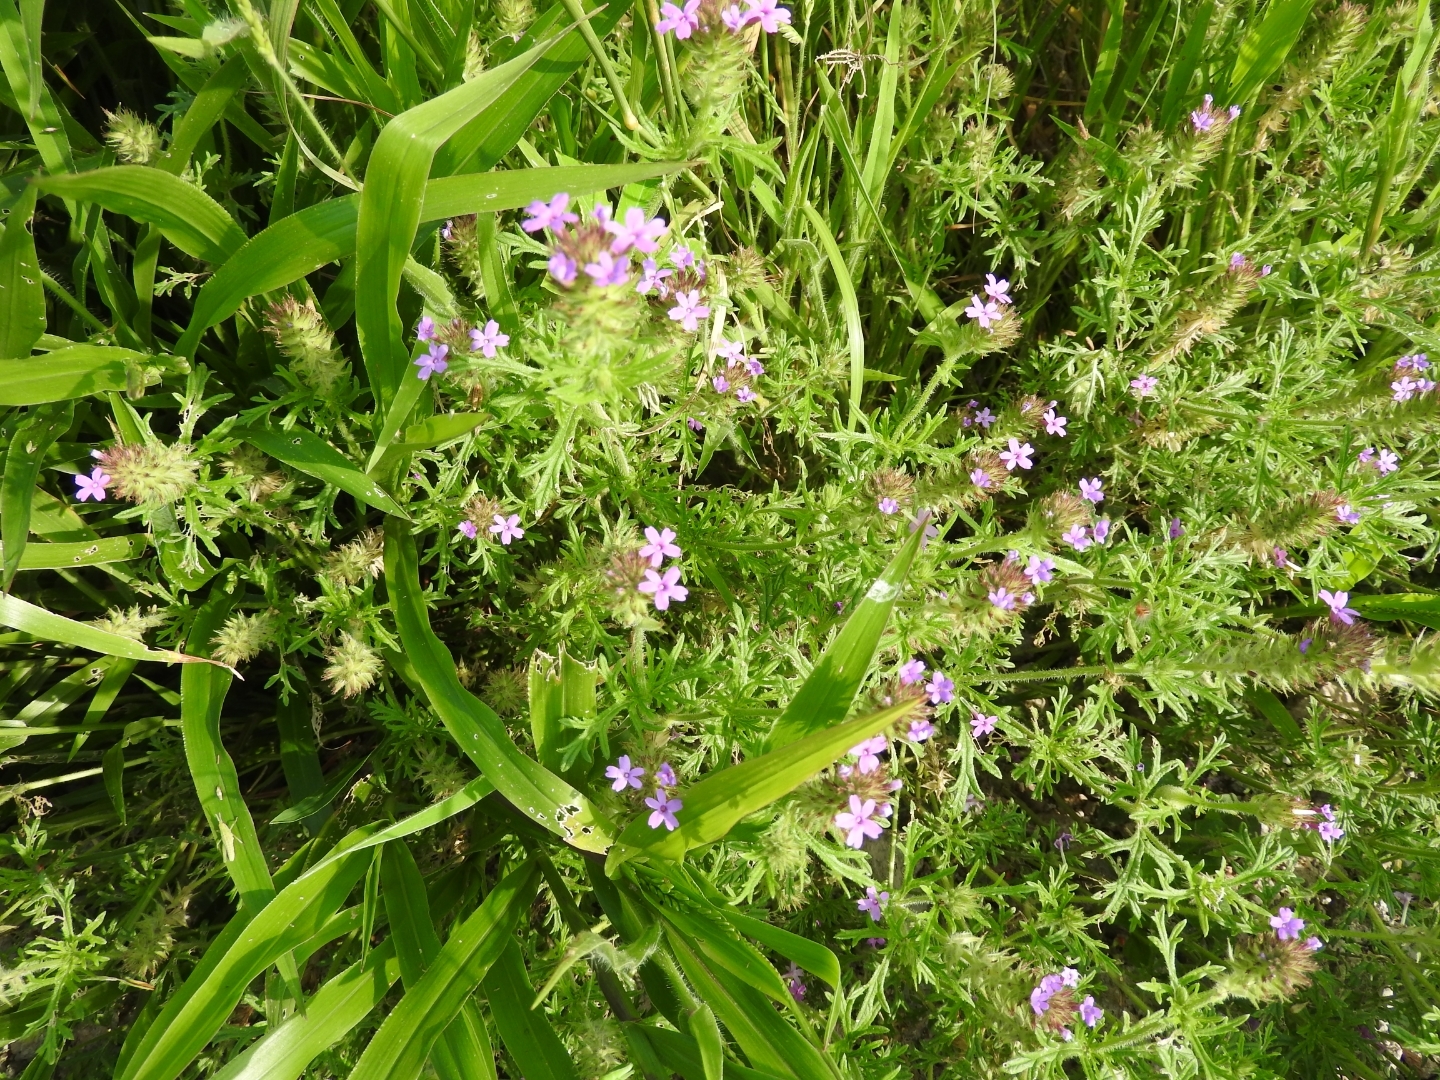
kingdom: Plantae
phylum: Tracheophyta
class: Magnoliopsida
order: Lamiales
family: Verbenaceae
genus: Verbena
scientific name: Verbena bipinnatifida
